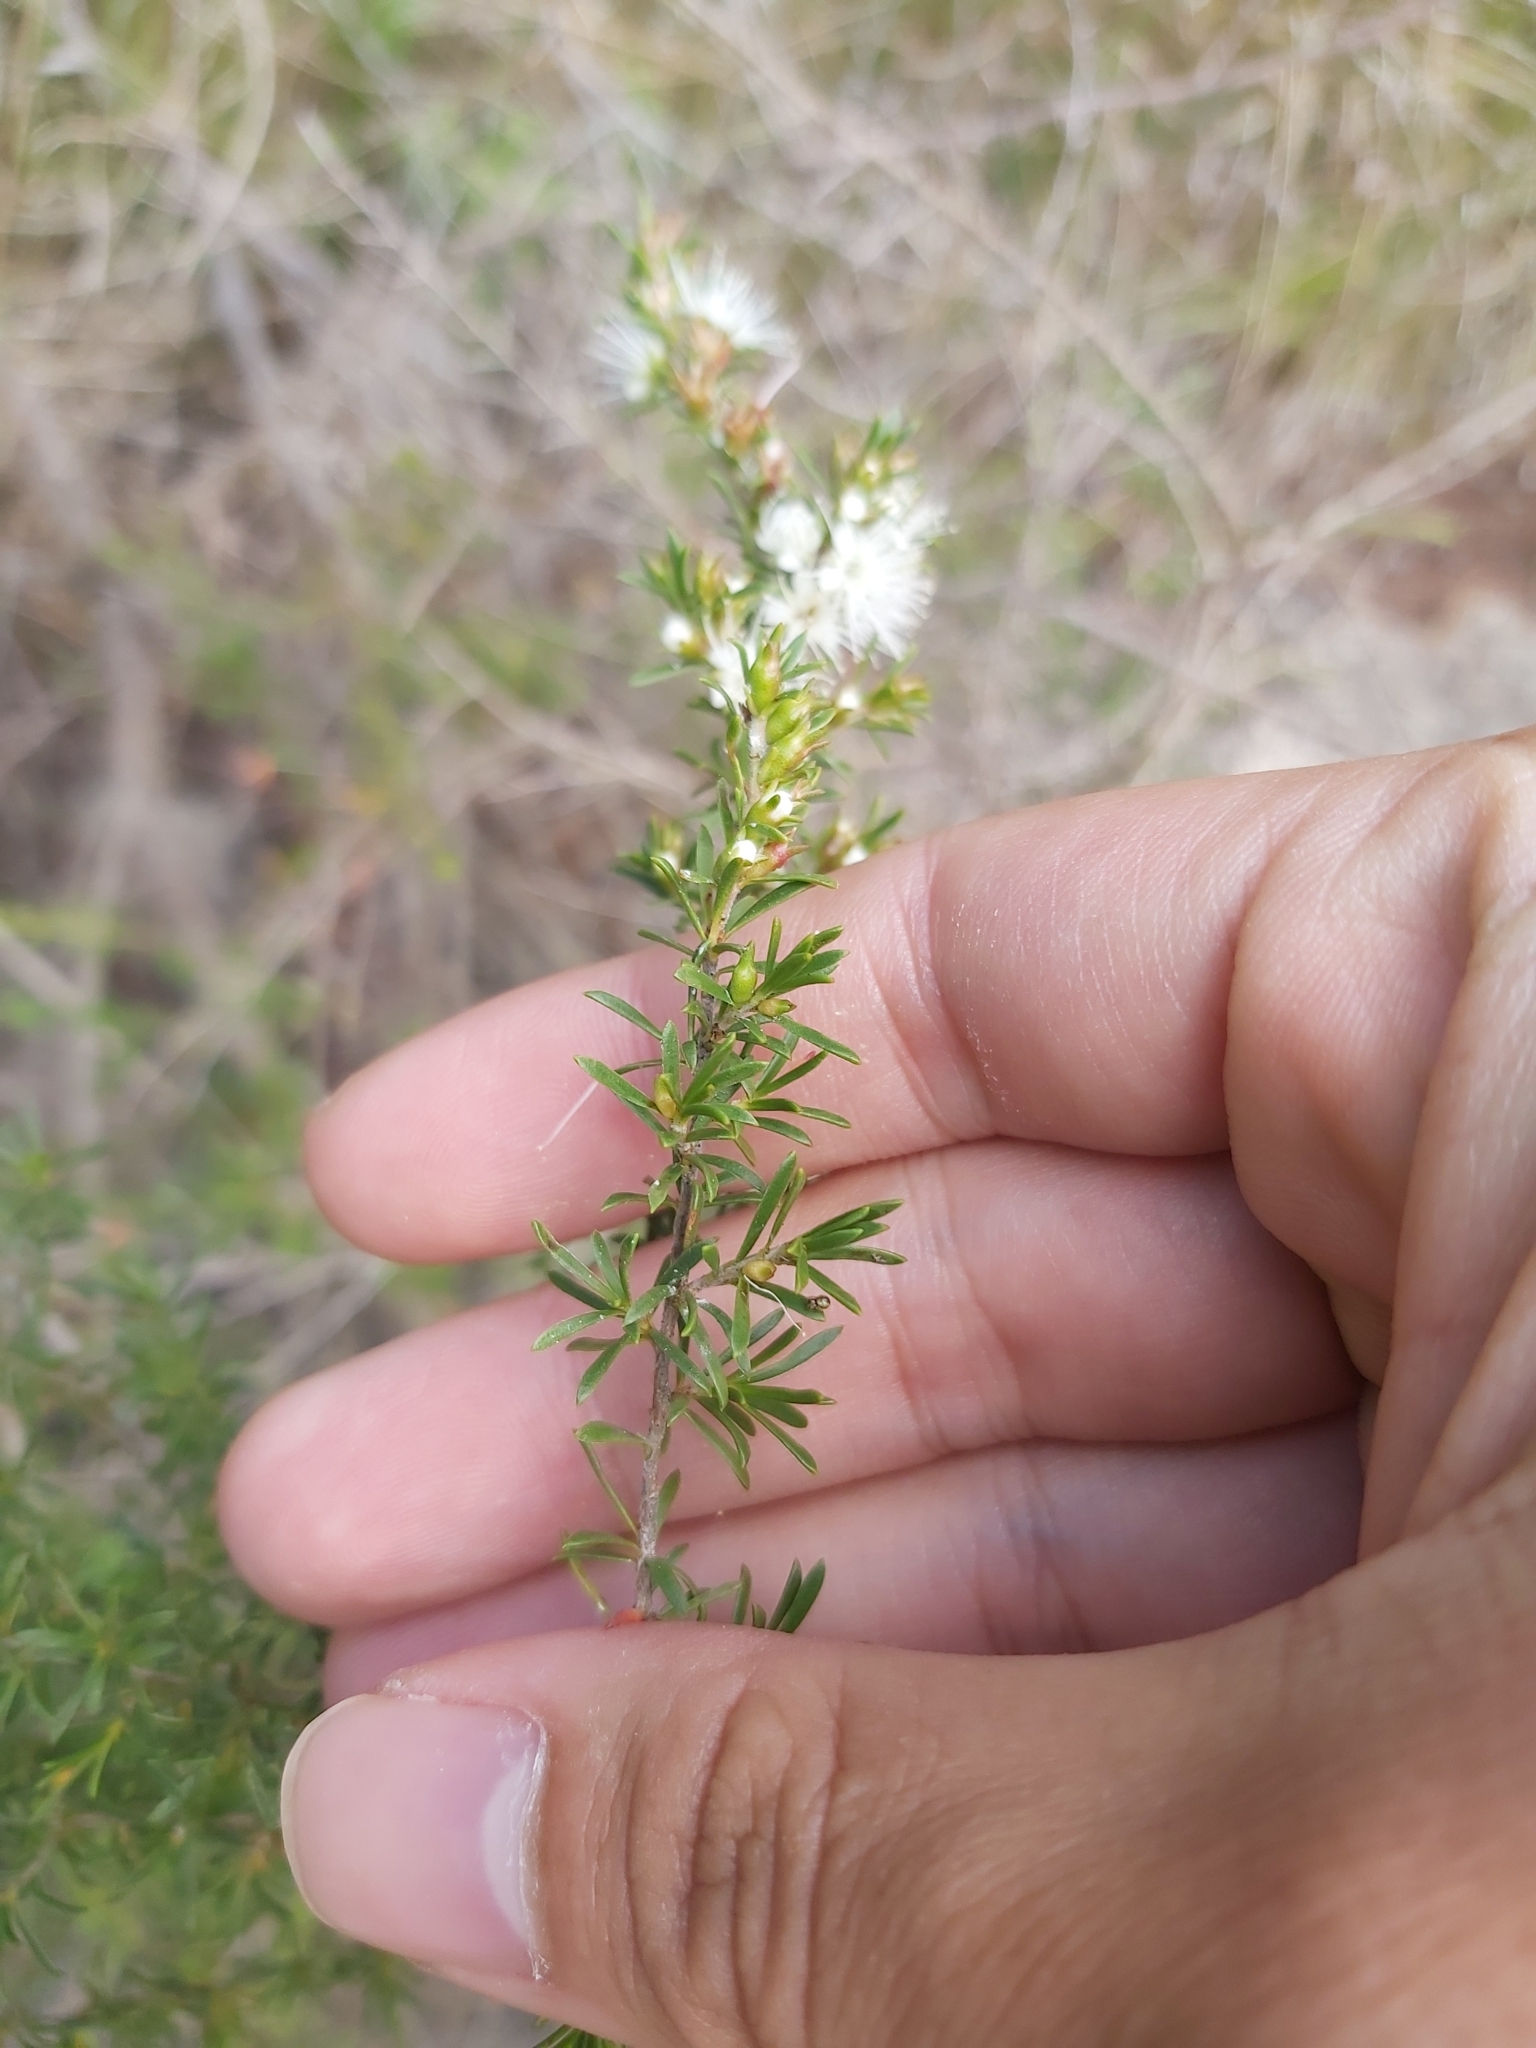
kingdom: Plantae
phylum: Tracheophyta
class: Magnoliopsida
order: Myrtales
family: Myrtaceae
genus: Kunzea
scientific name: Kunzea ambigua
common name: Tickbush
